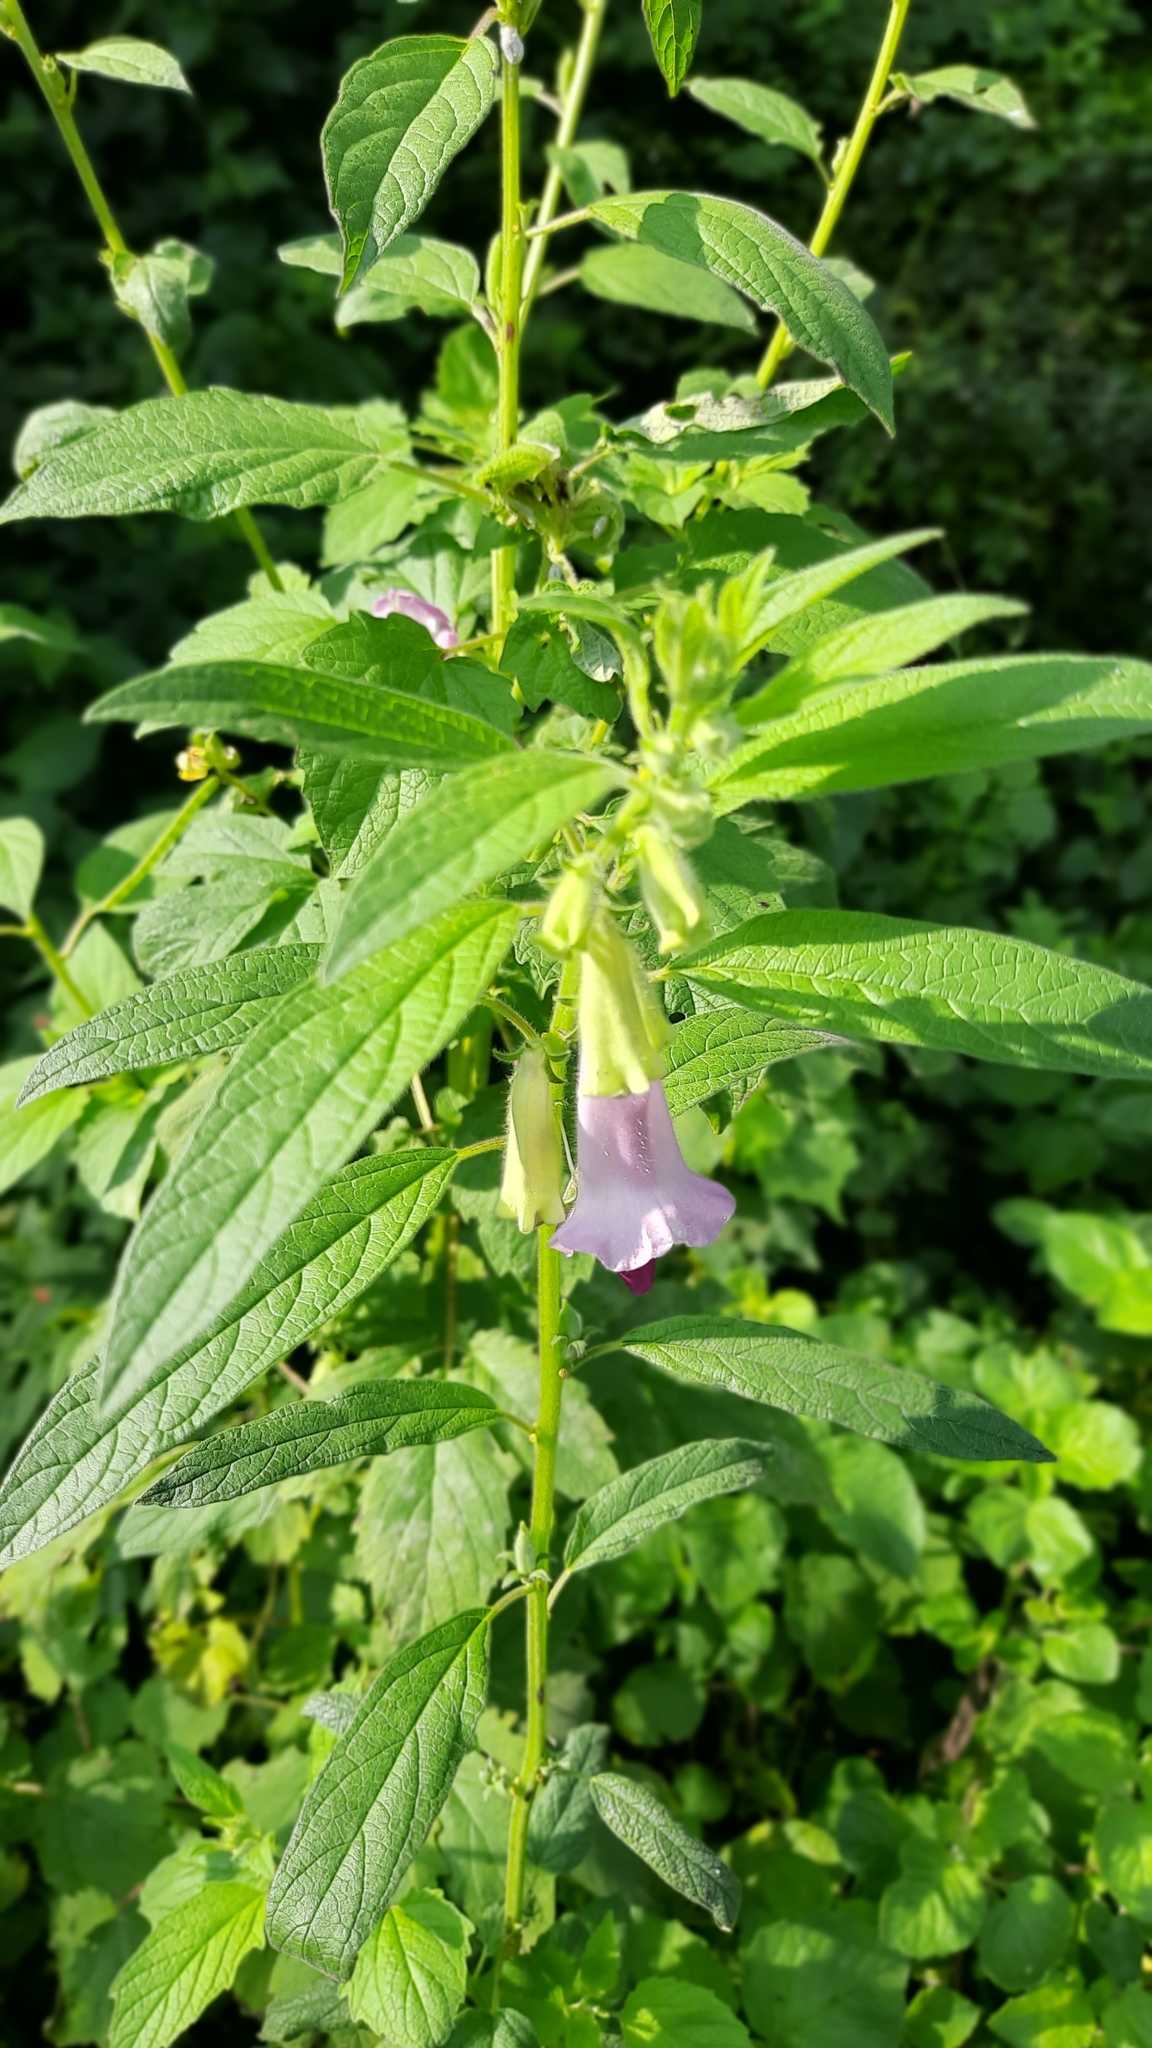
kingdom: Plantae
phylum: Tracheophyta
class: Magnoliopsida
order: Lamiales
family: Pedaliaceae
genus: Sesamum
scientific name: Sesamum indicum
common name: Sesame
